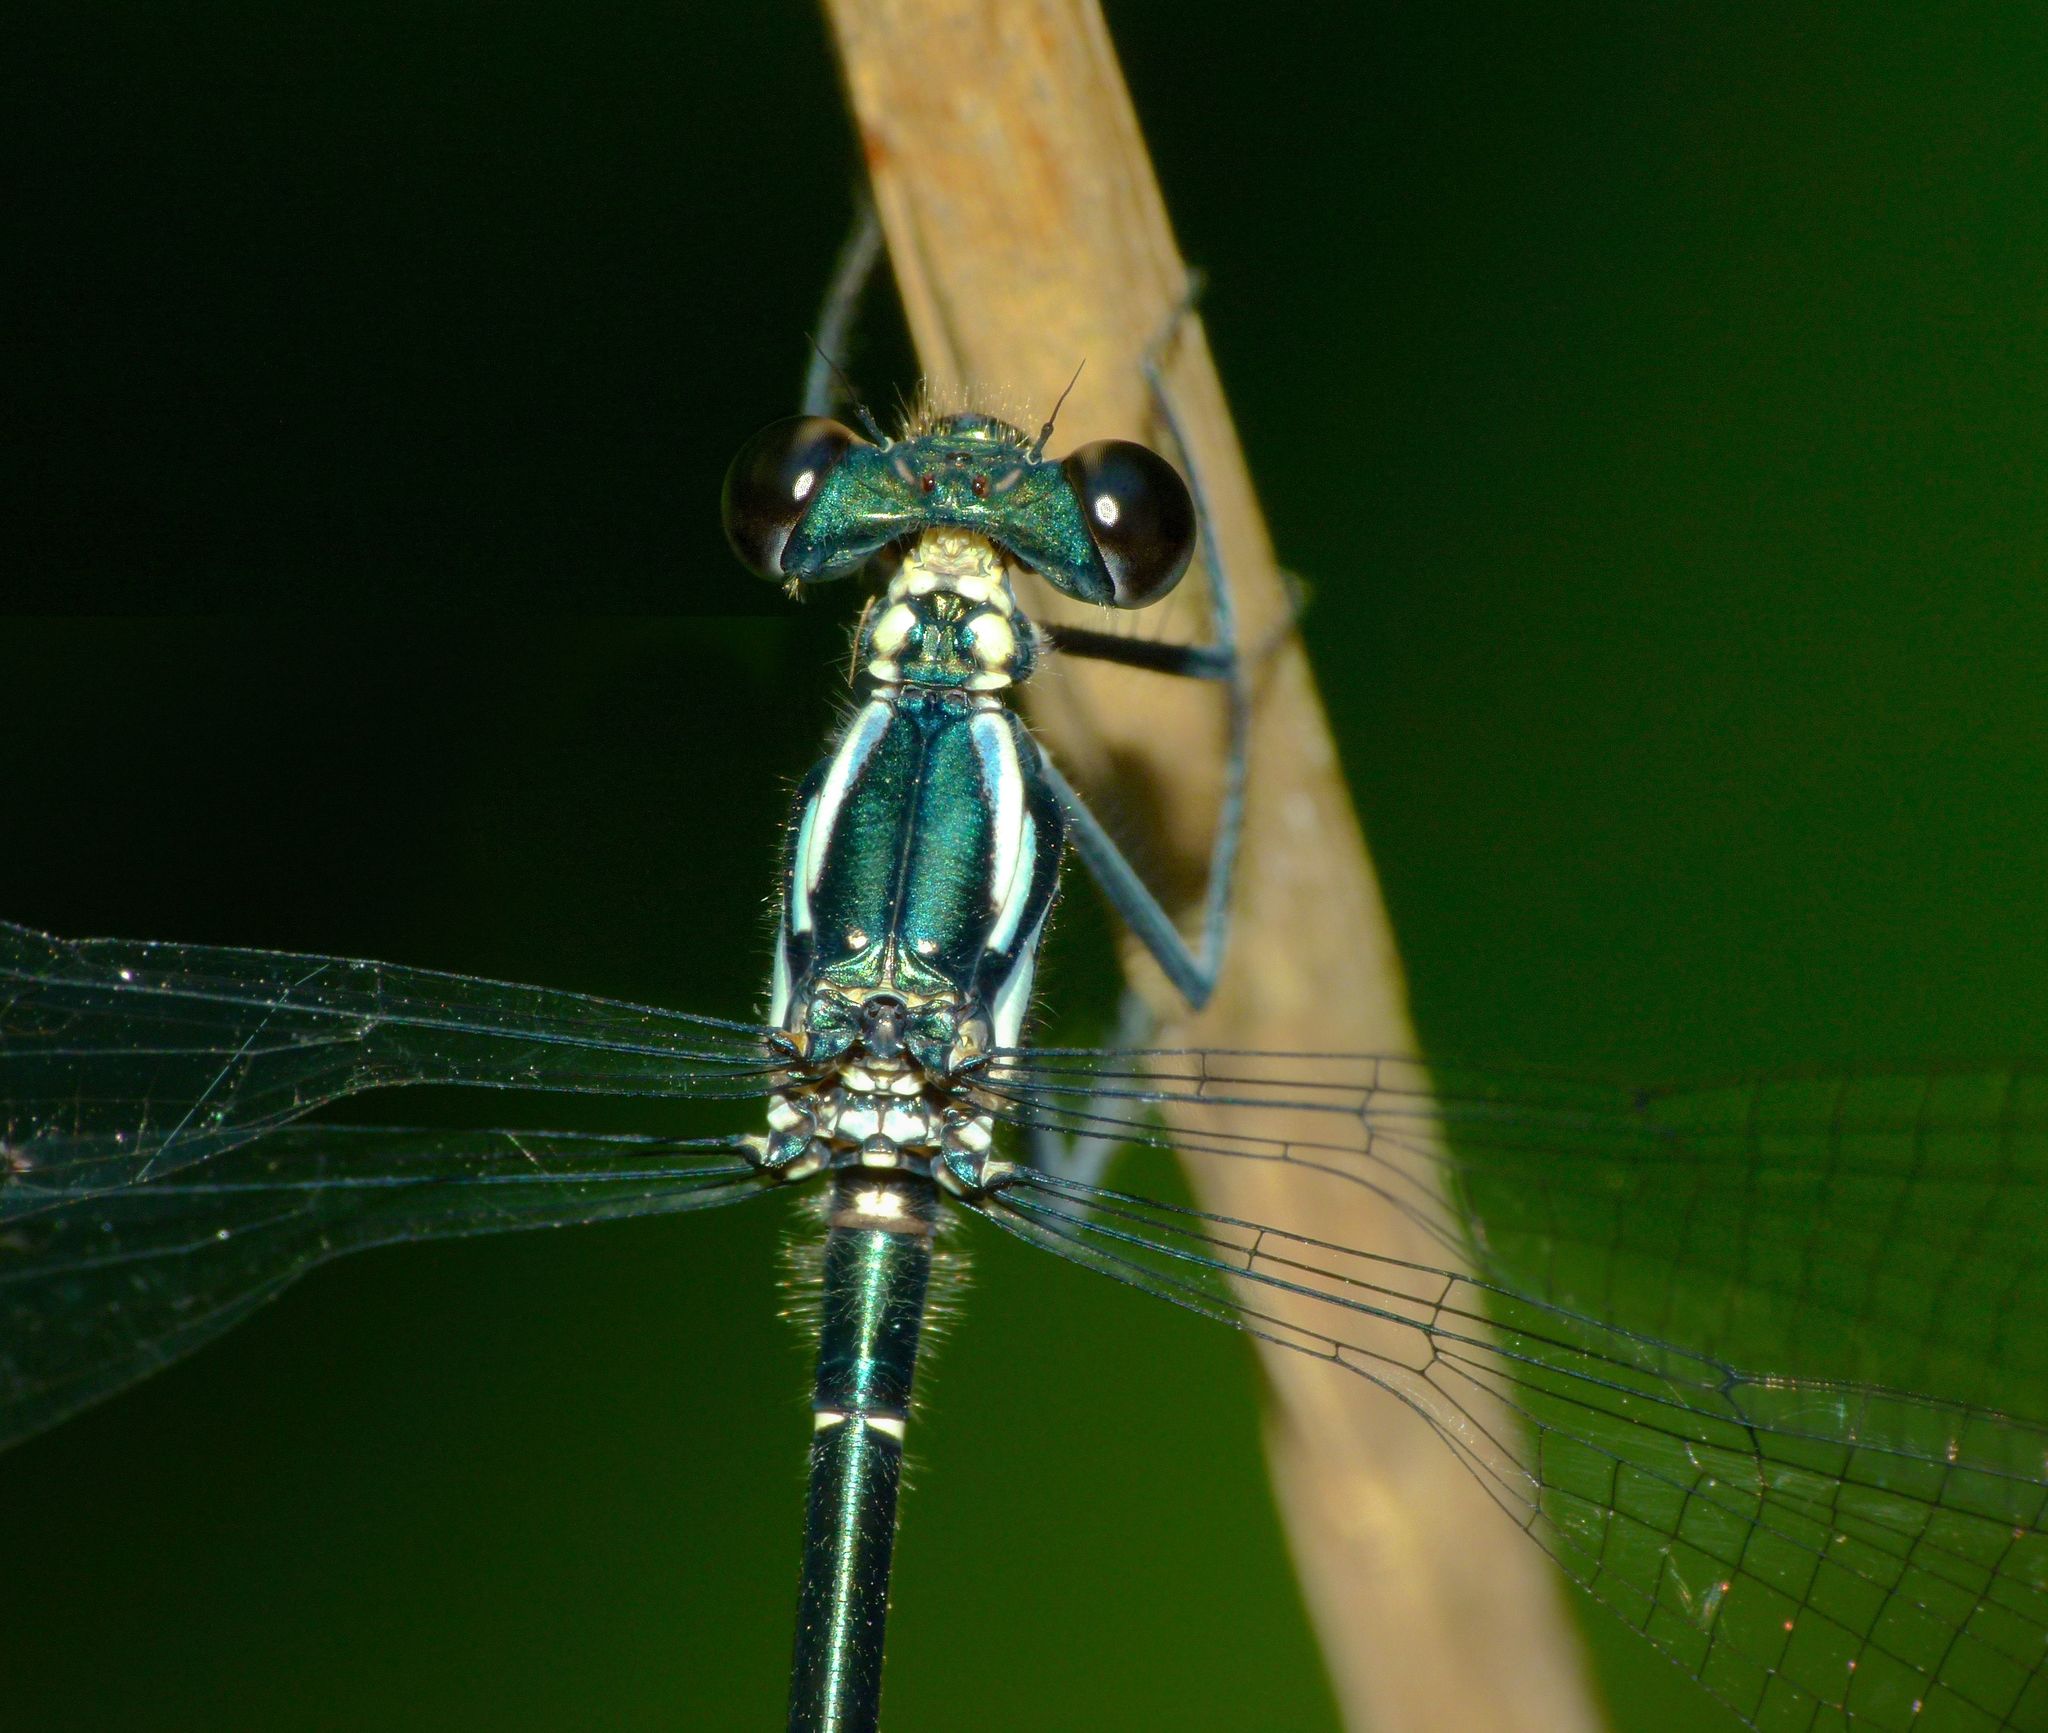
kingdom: Animalia
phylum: Arthropoda
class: Insecta
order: Odonata
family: Argiolestidae
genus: Austroargiolestes
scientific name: Austroargiolestes icteromelas
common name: Common flatwing
